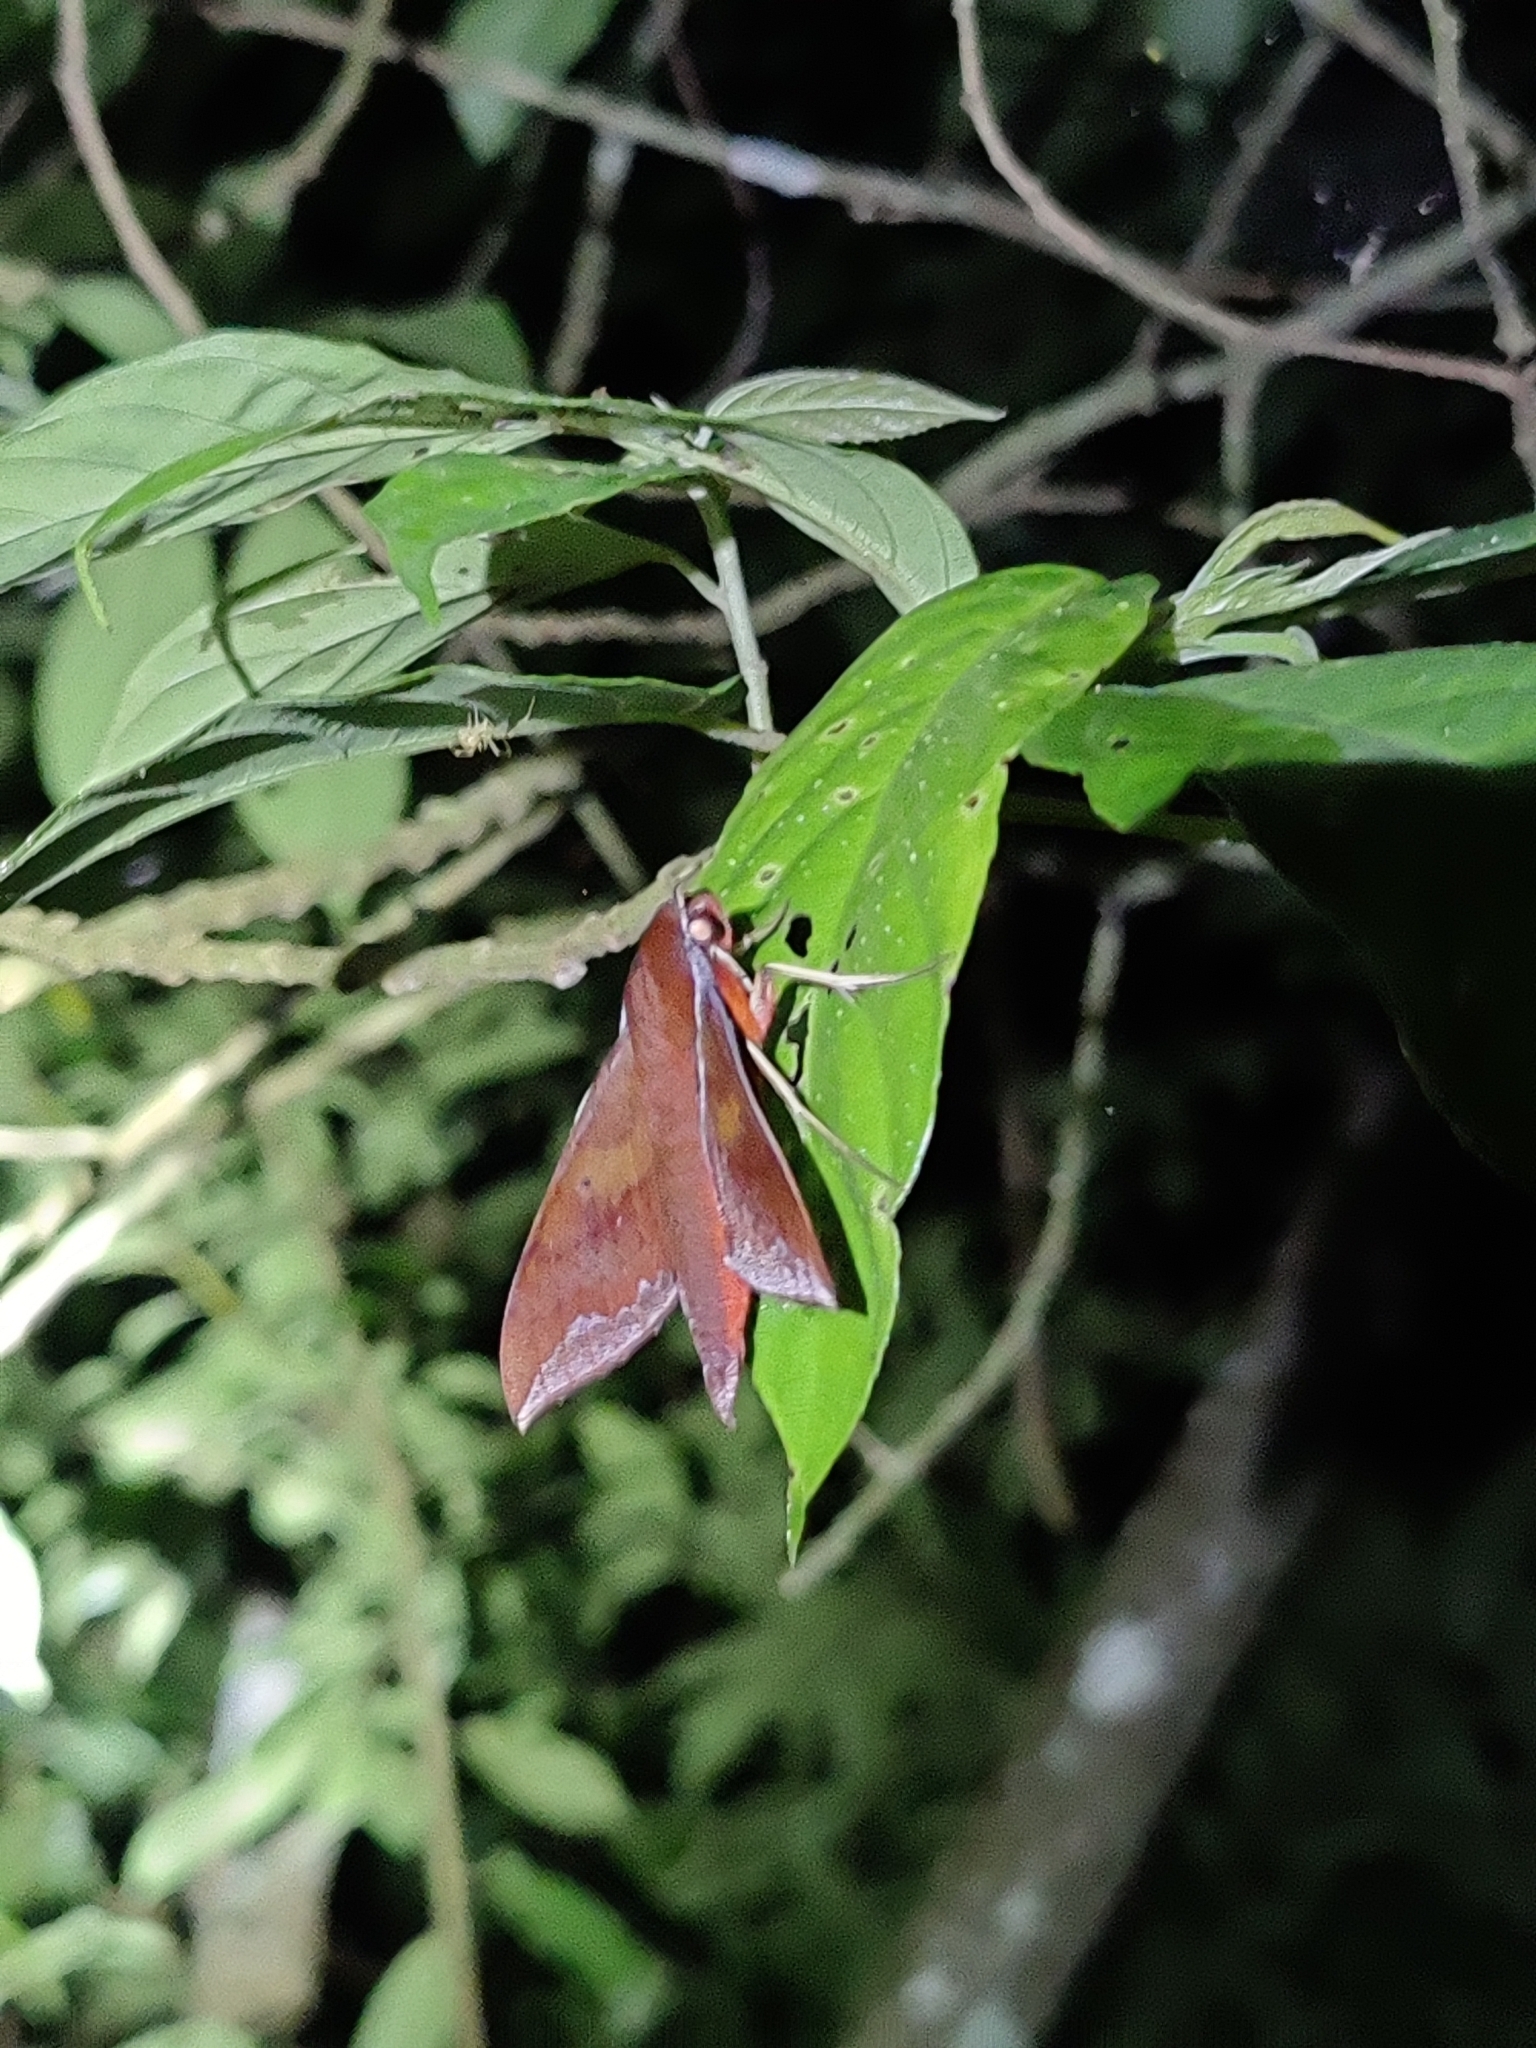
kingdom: Animalia
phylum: Arthropoda
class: Insecta
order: Lepidoptera
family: Sphingidae
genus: Rhagastis
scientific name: Rhagastis olivacea
